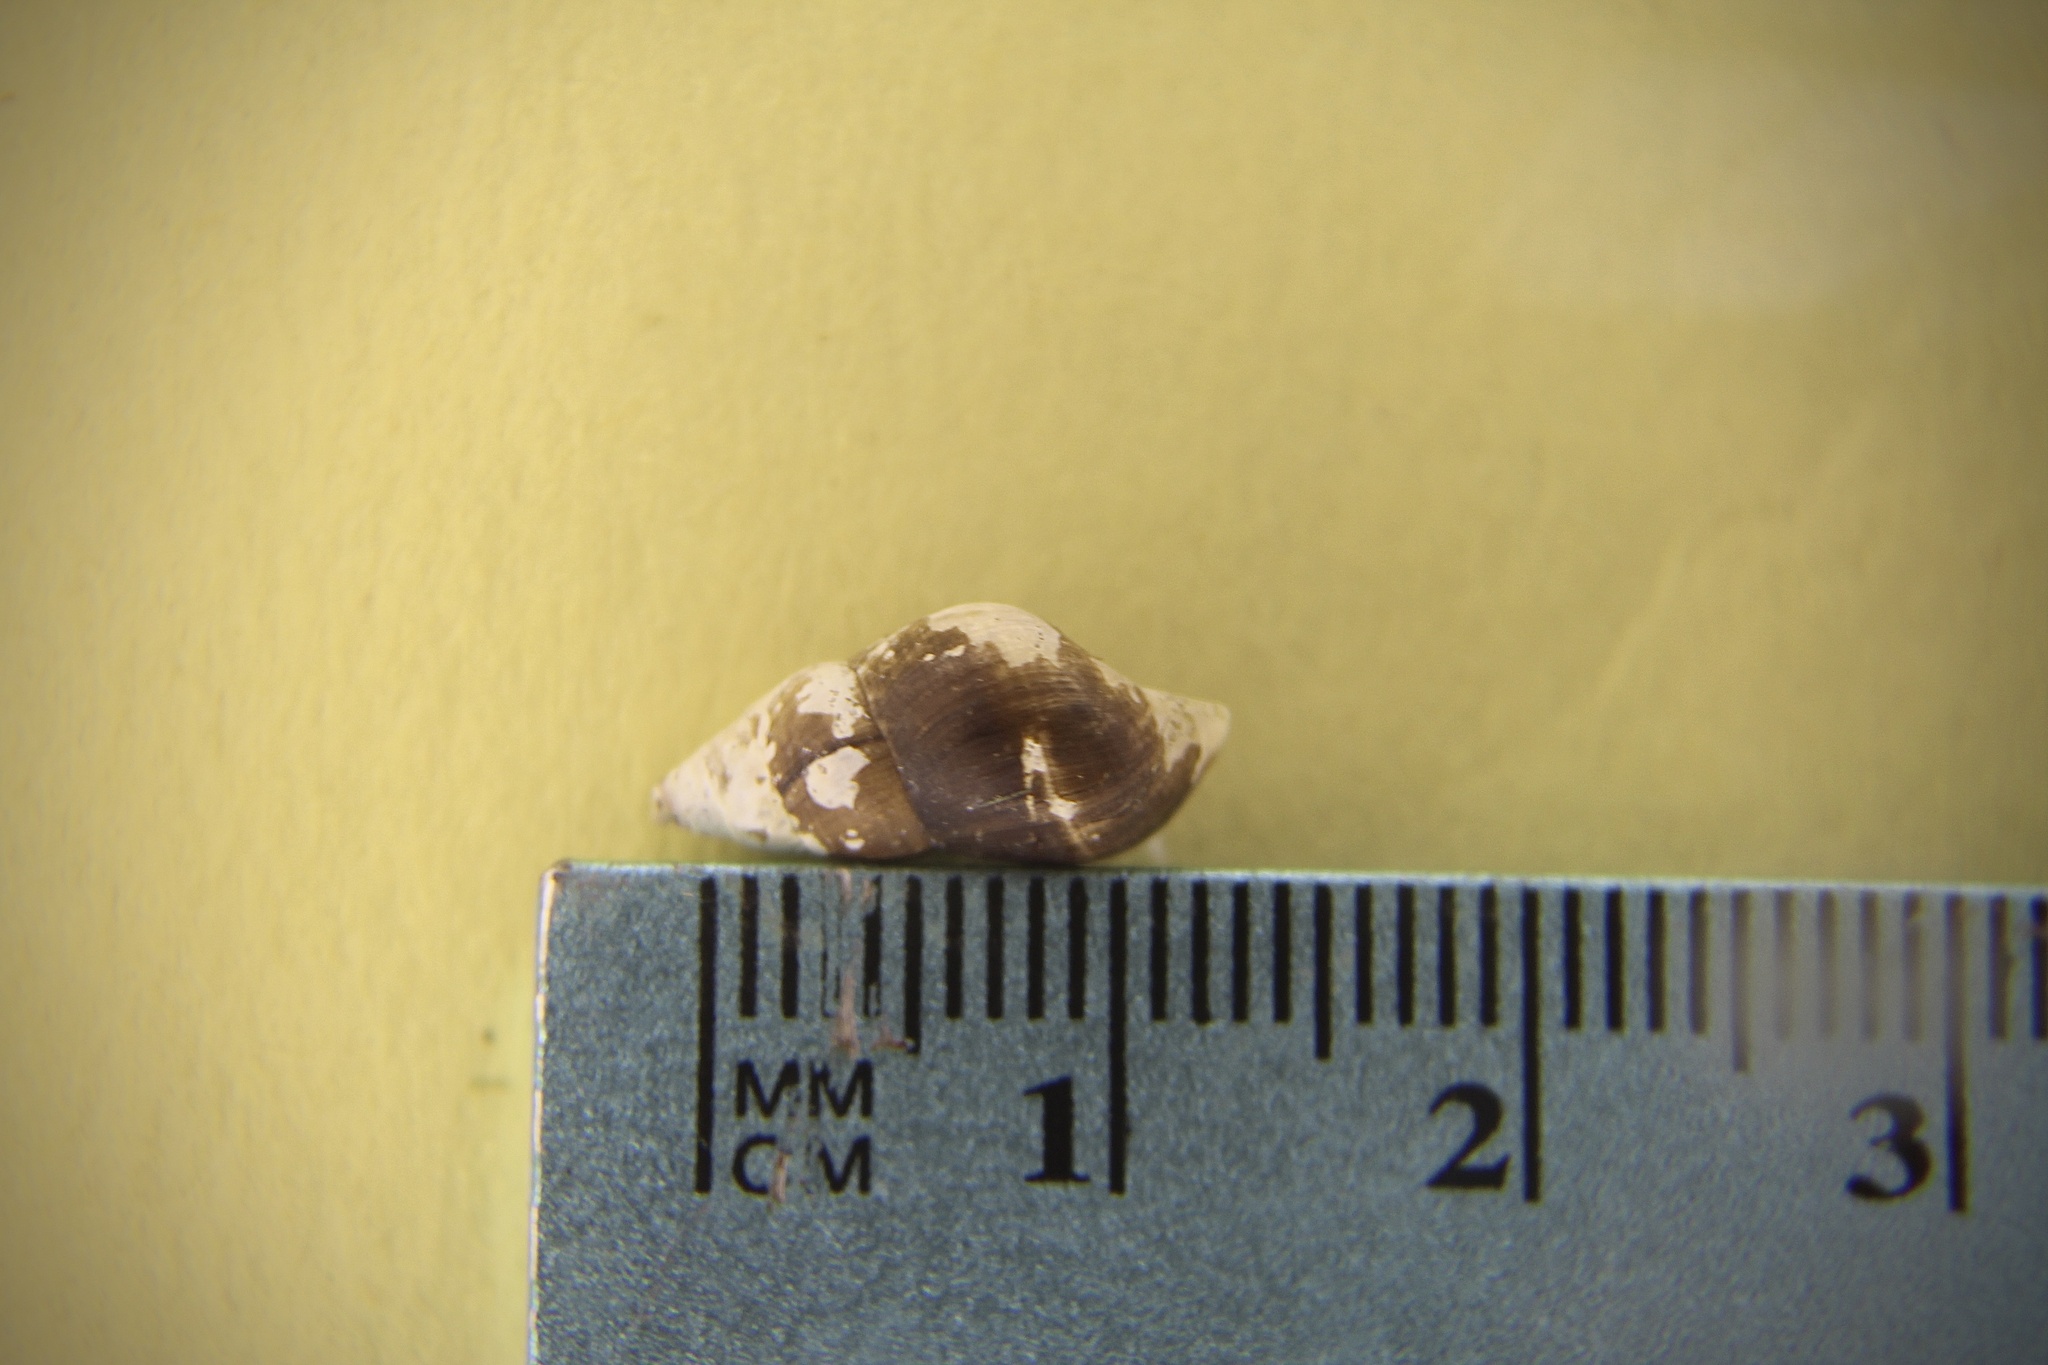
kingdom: Animalia
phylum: Mollusca
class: Gastropoda
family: Pleuroceridae
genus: Elimia
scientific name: Elimia livescens
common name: Liver elimia
